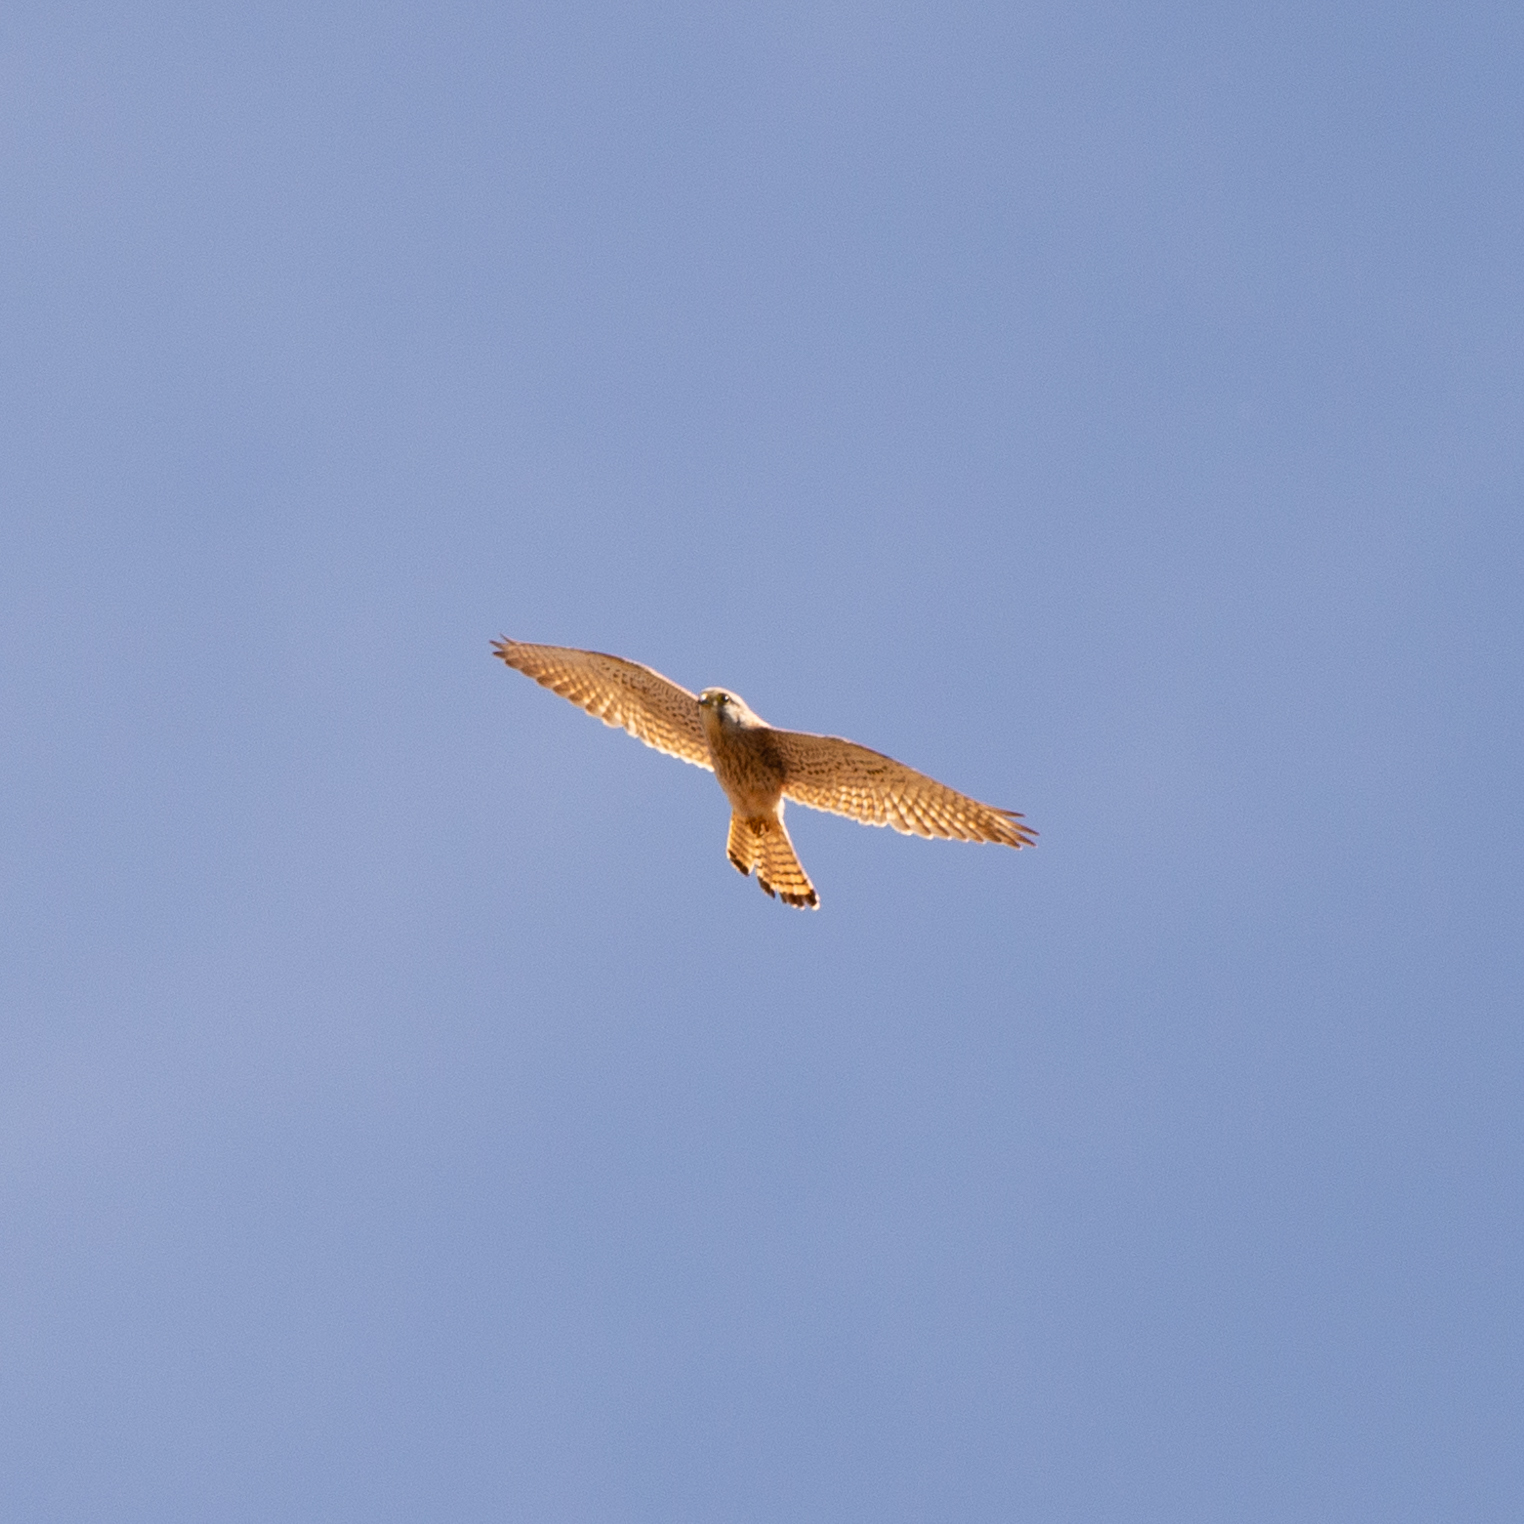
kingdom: Animalia
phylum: Chordata
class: Aves
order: Falconiformes
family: Falconidae
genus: Falco
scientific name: Falco tinnunculus
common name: Common kestrel
